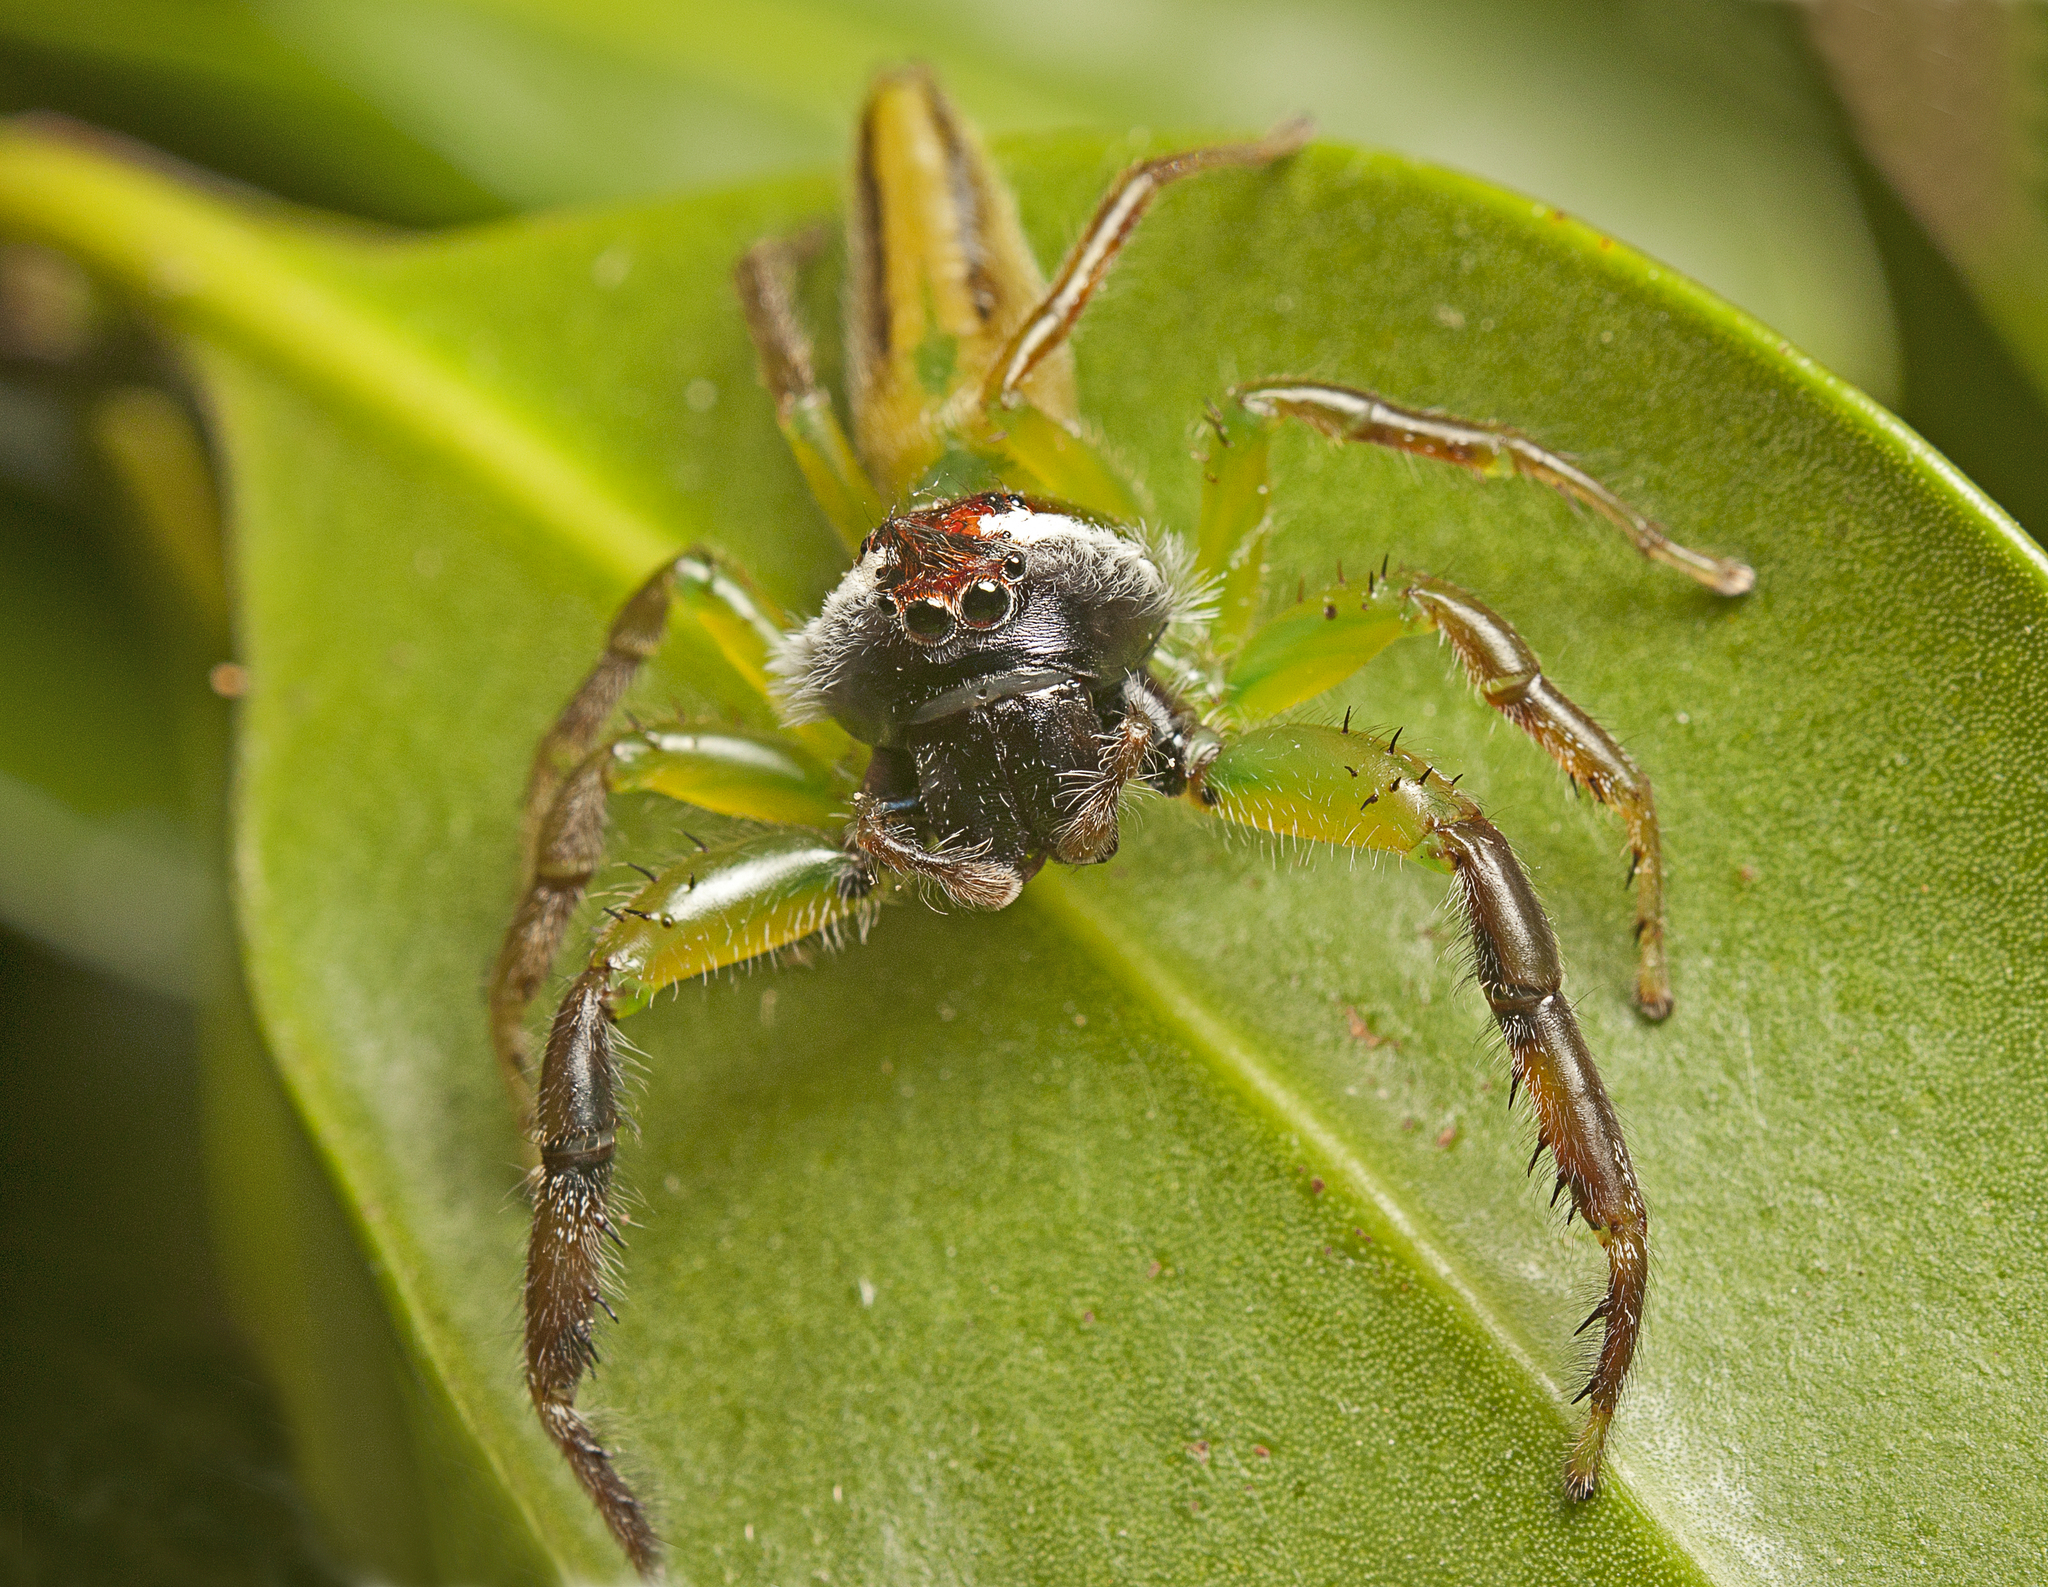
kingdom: Animalia
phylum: Arthropoda
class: Arachnida
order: Araneae
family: Salticidae
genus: Mopsus
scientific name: Mopsus mormon
